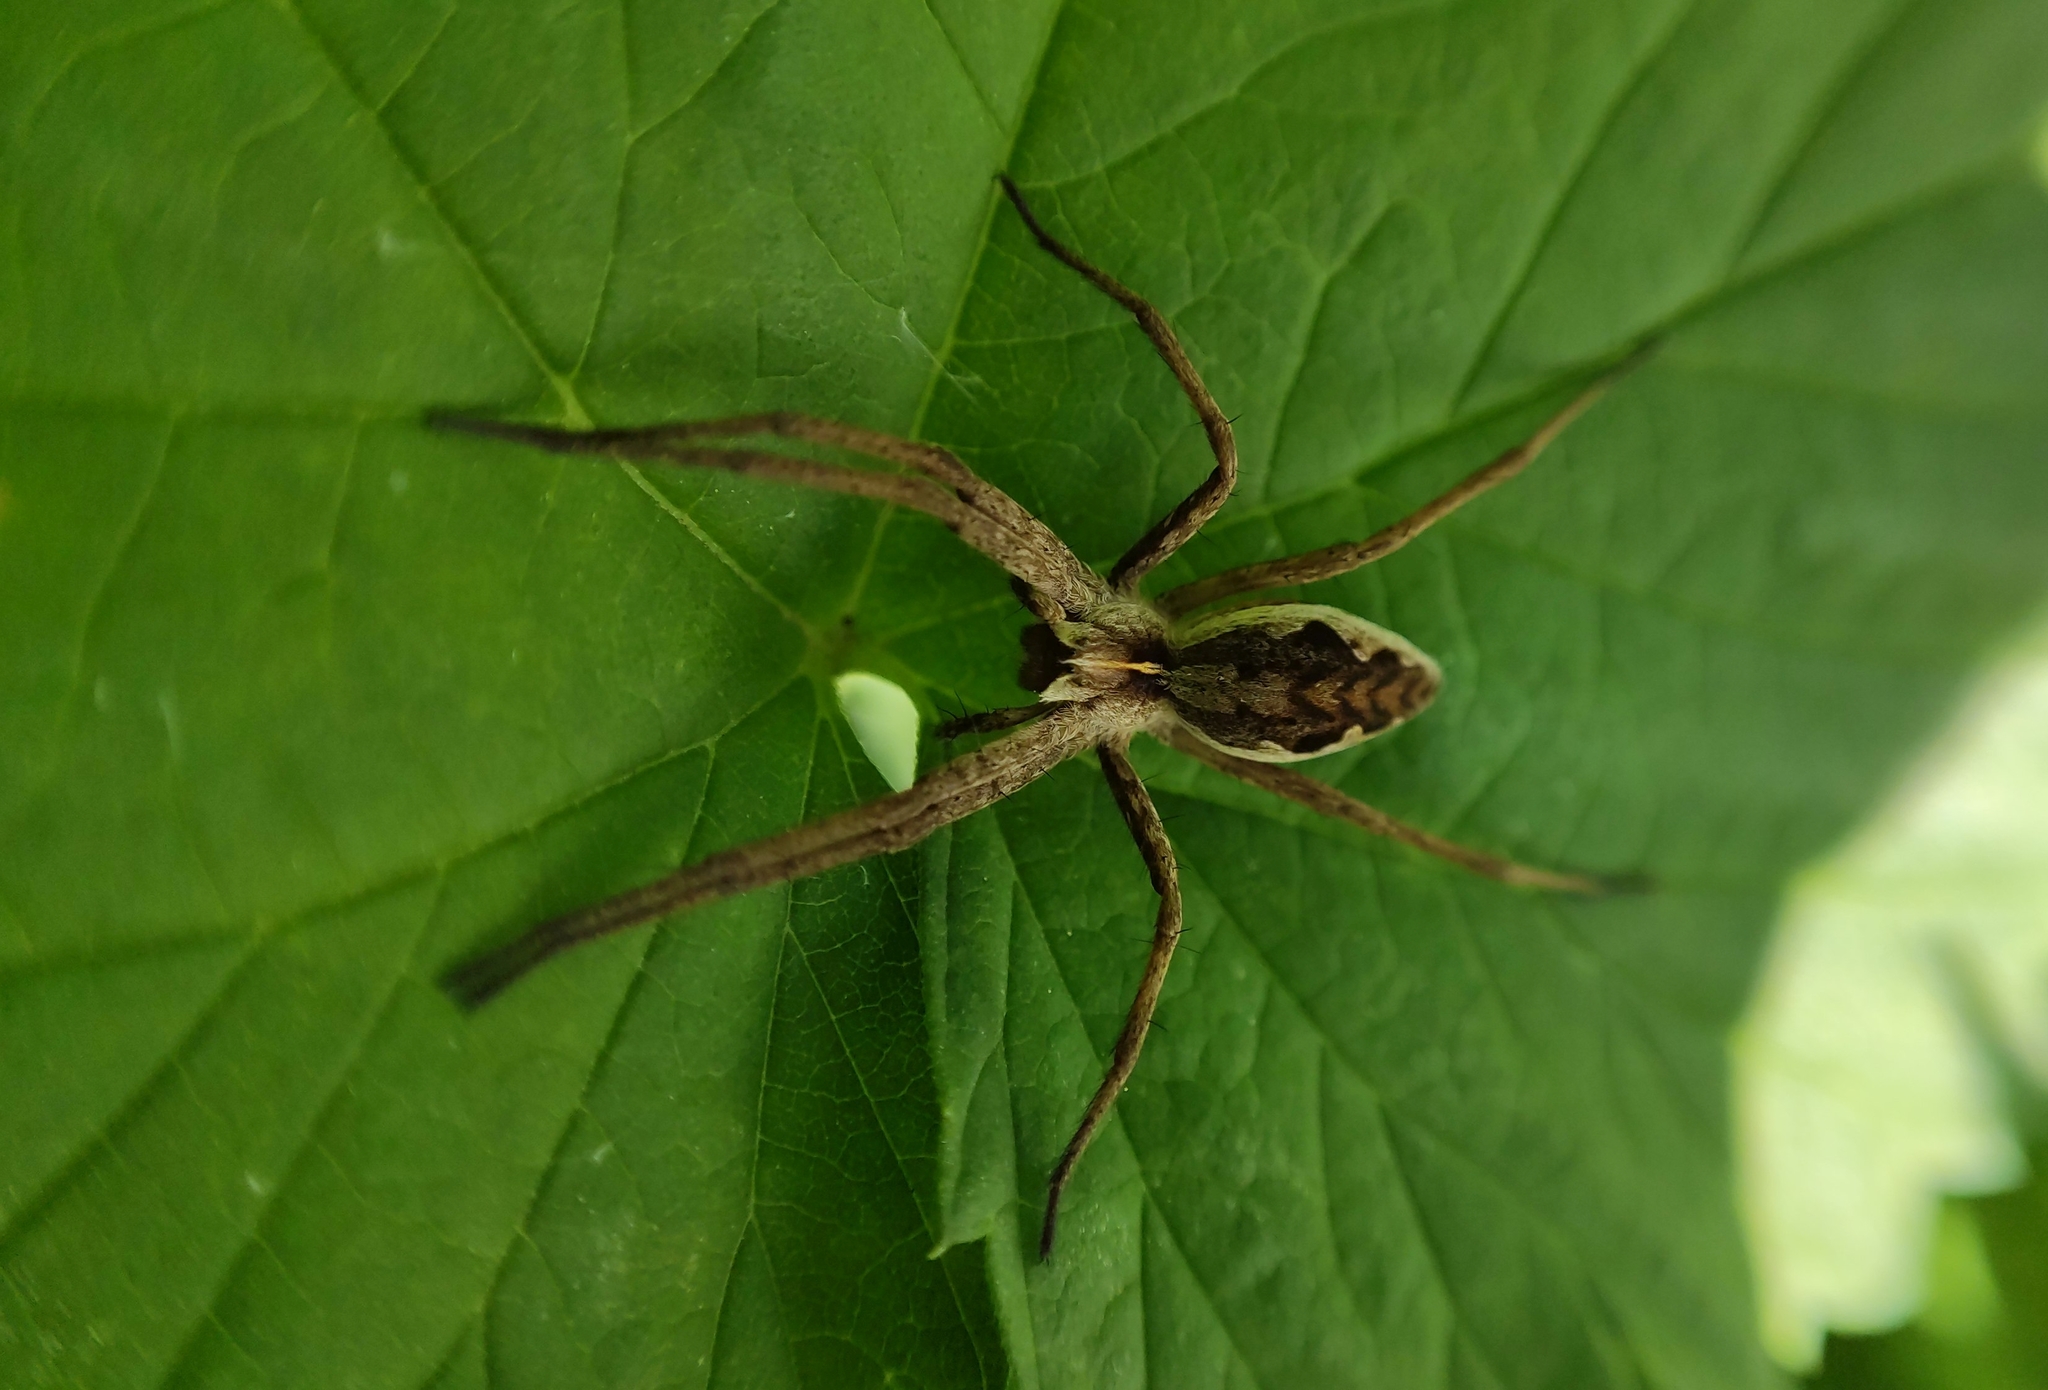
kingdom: Animalia
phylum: Arthropoda
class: Arachnida
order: Araneae
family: Pisauridae
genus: Pisaura
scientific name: Pisaura mirabilis
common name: Tent spider
